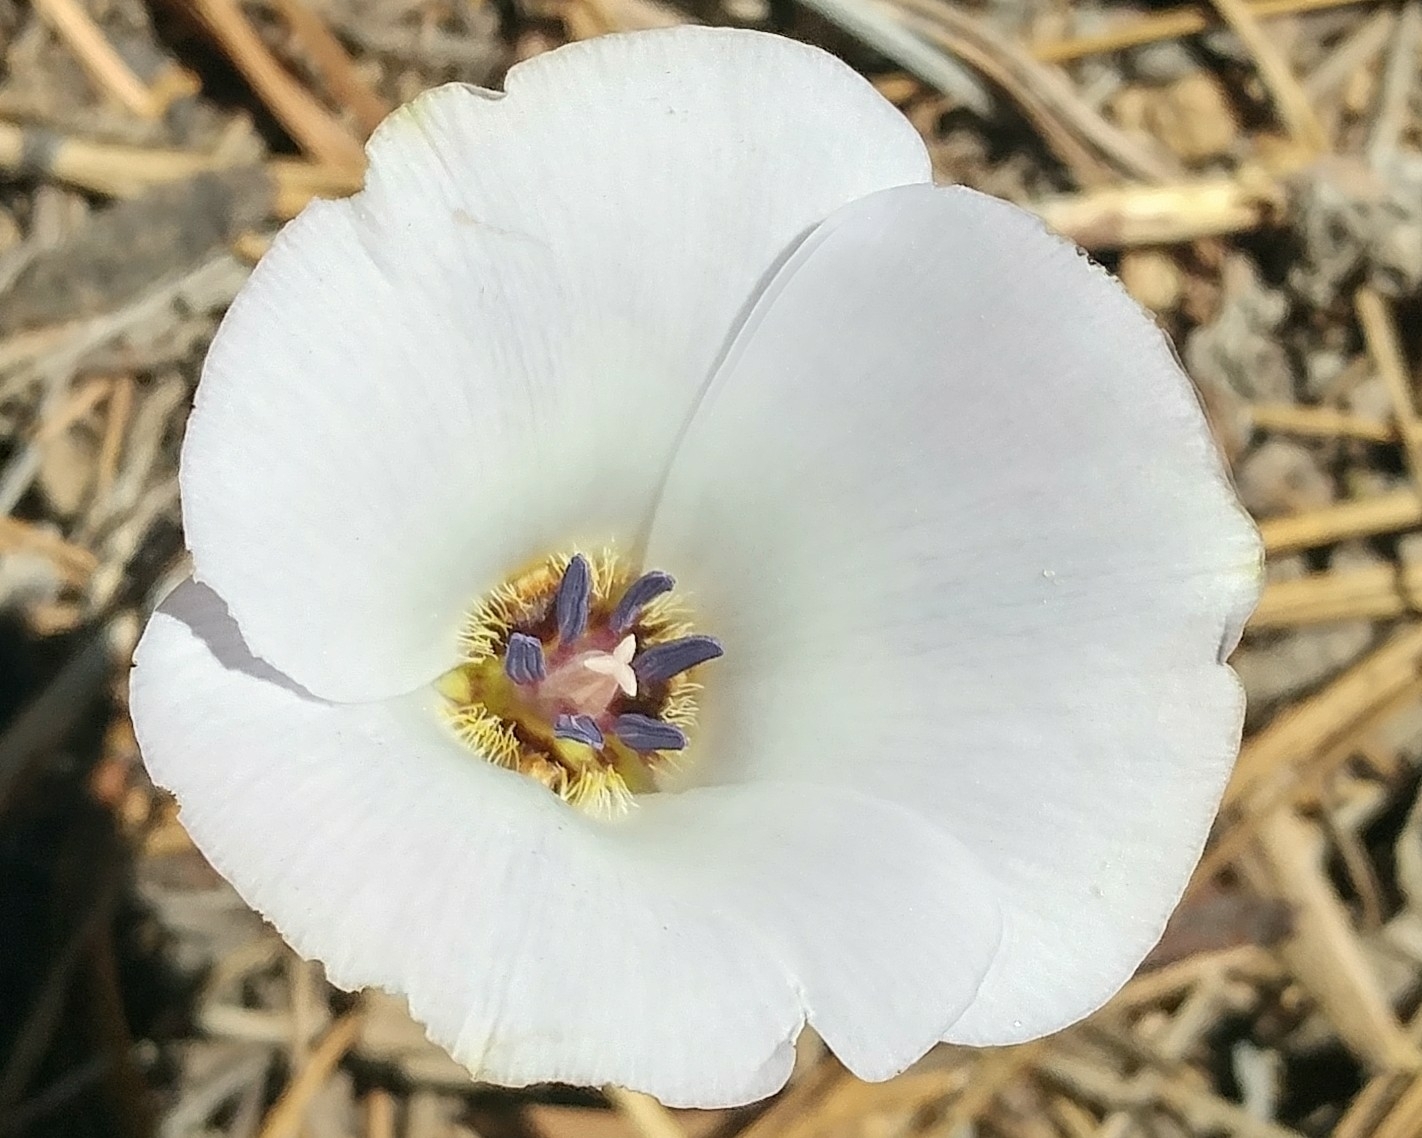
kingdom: Plantae
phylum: Tracheophyta
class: Liliopsida
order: Liliales
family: Liliaceae
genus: Calochortus
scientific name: Calochortus invenustus
